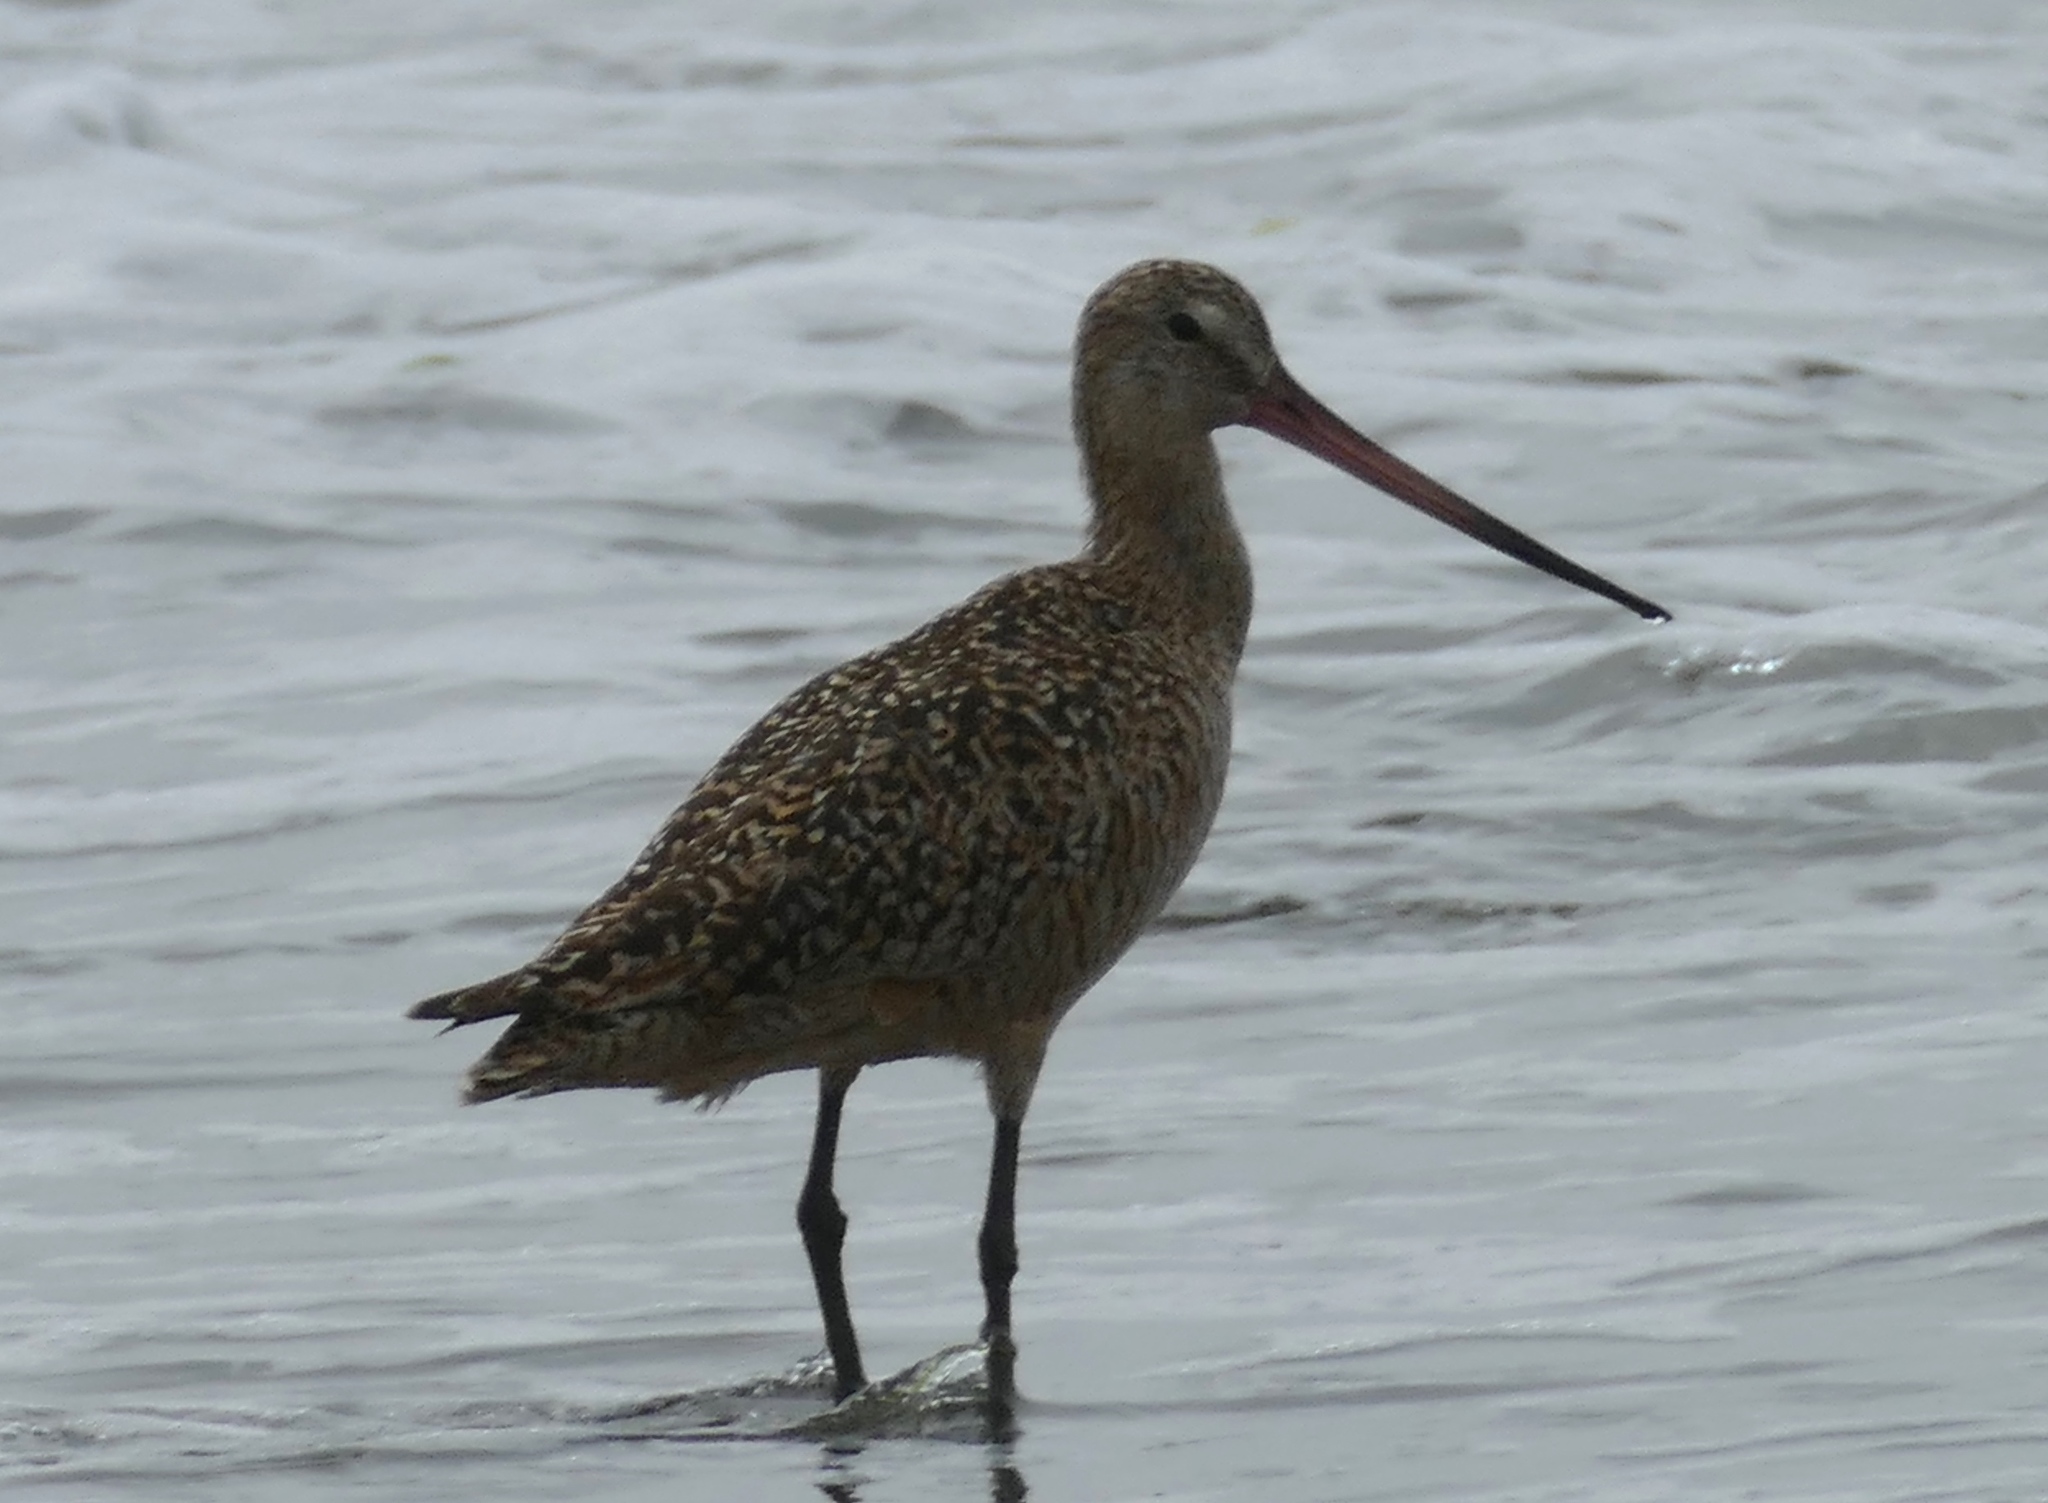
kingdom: Animalia
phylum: Chordata
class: Aves
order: Charadriiformes
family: Scolopacidae
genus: Limosa
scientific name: Limosa fedoa
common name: Marbled godwit
